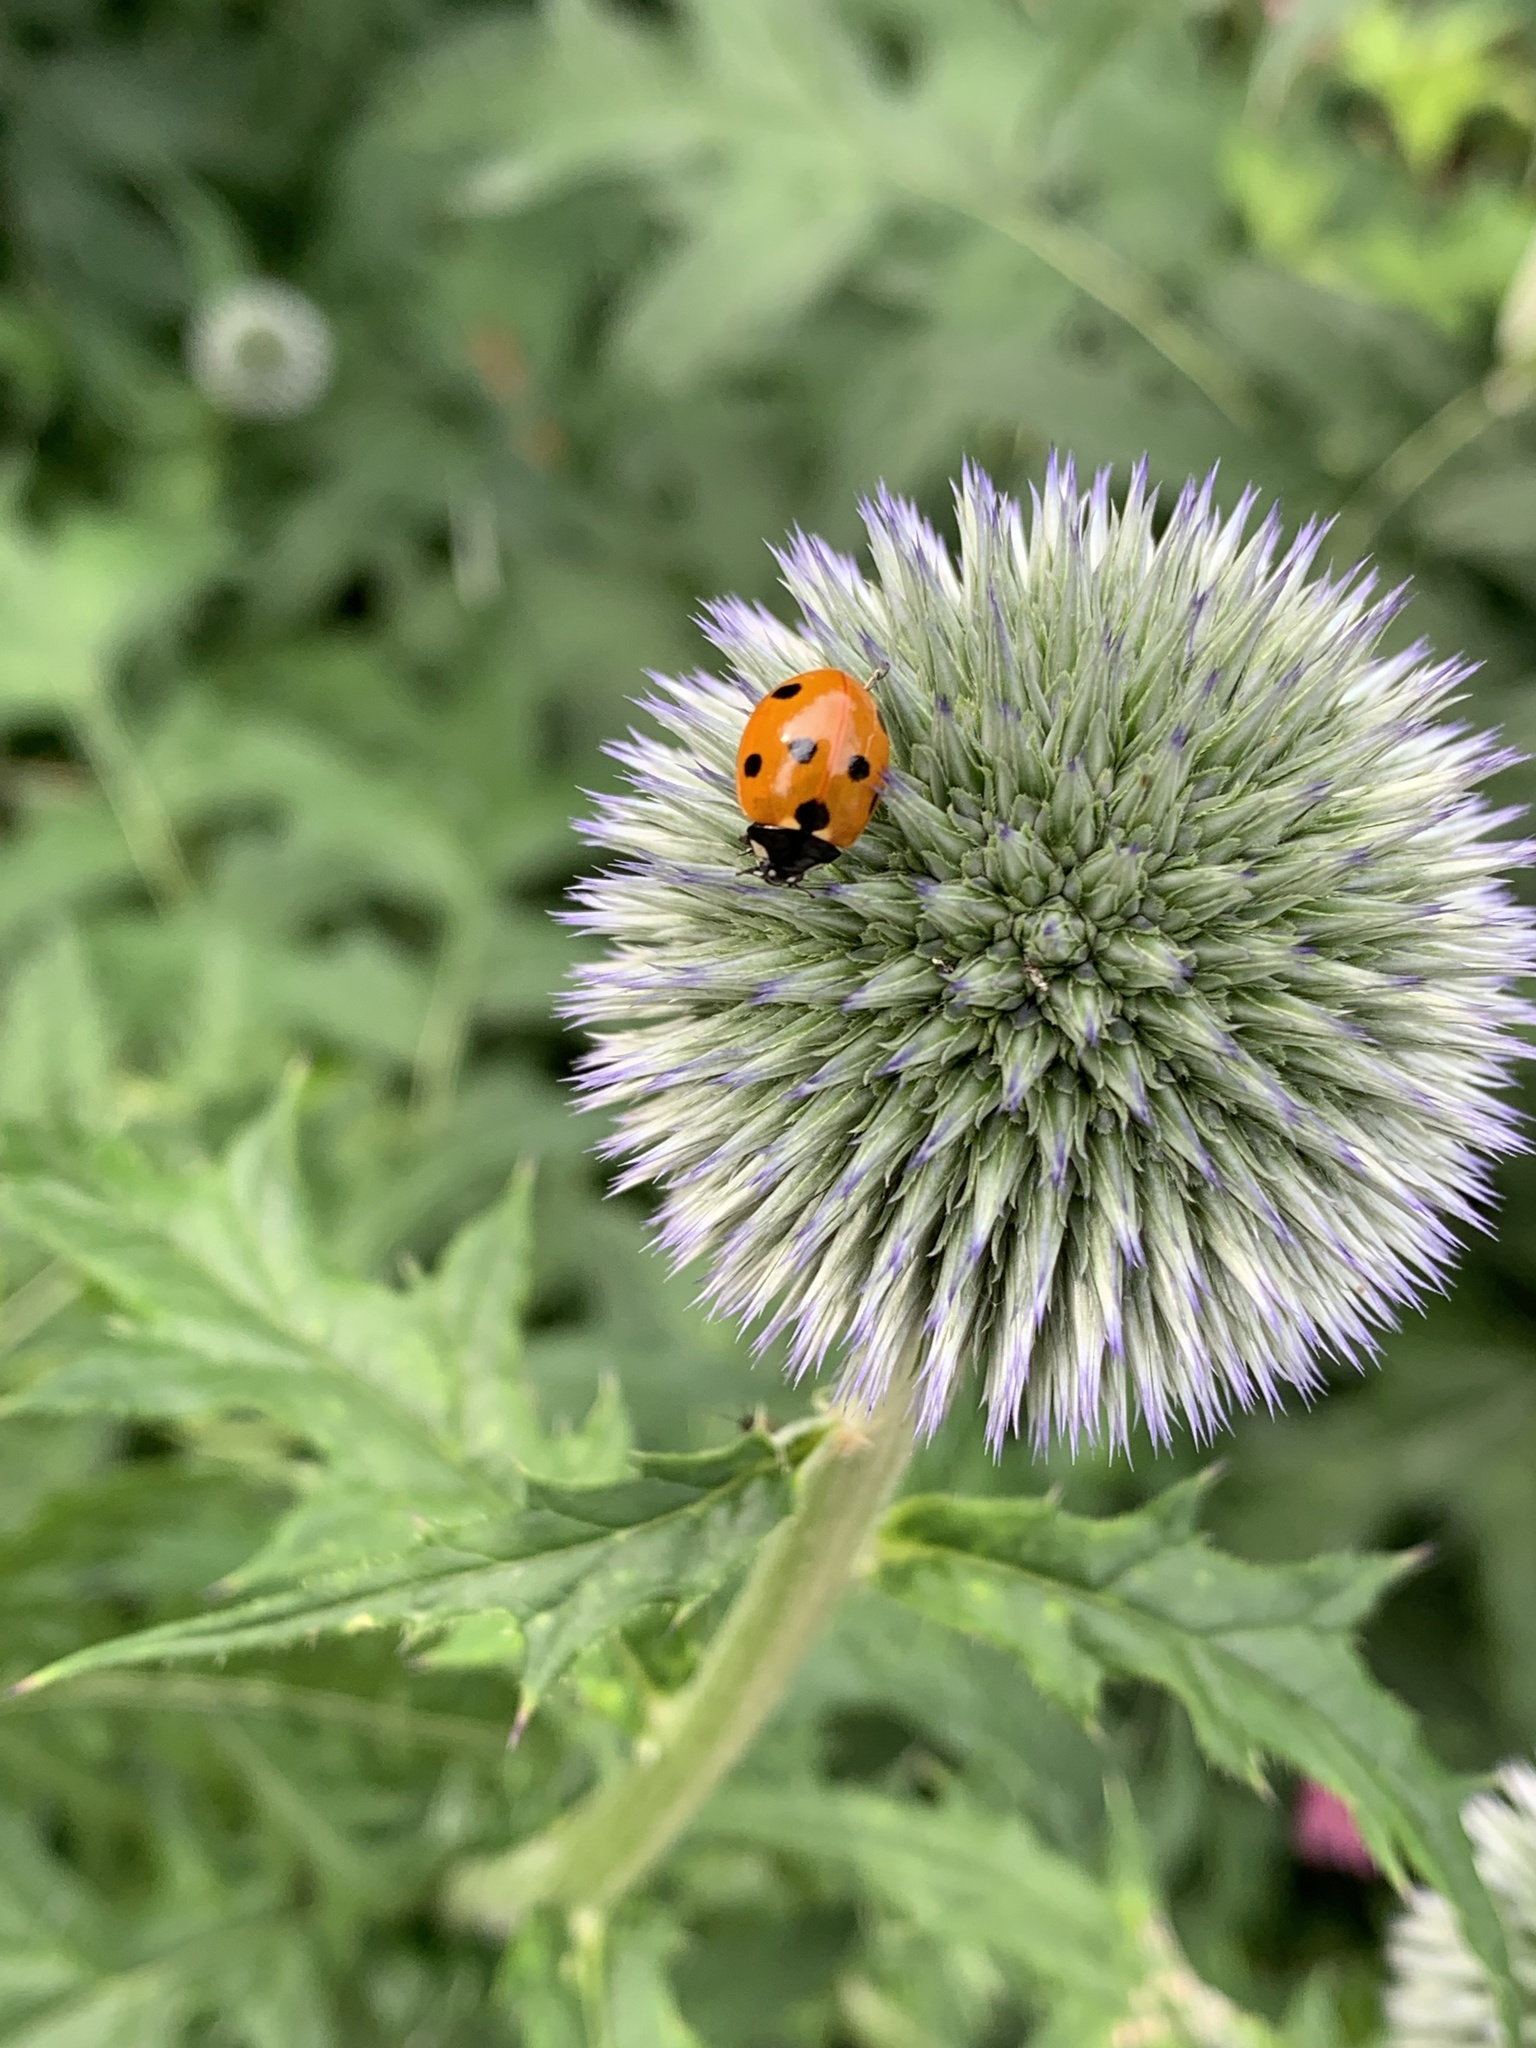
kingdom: Animalia
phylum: Arthropoda
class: Insecta
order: Coleoptera
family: Coccinellidae
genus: Coccinella
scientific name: Coccinella septempunctata
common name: Sevenspotted lady beetle
